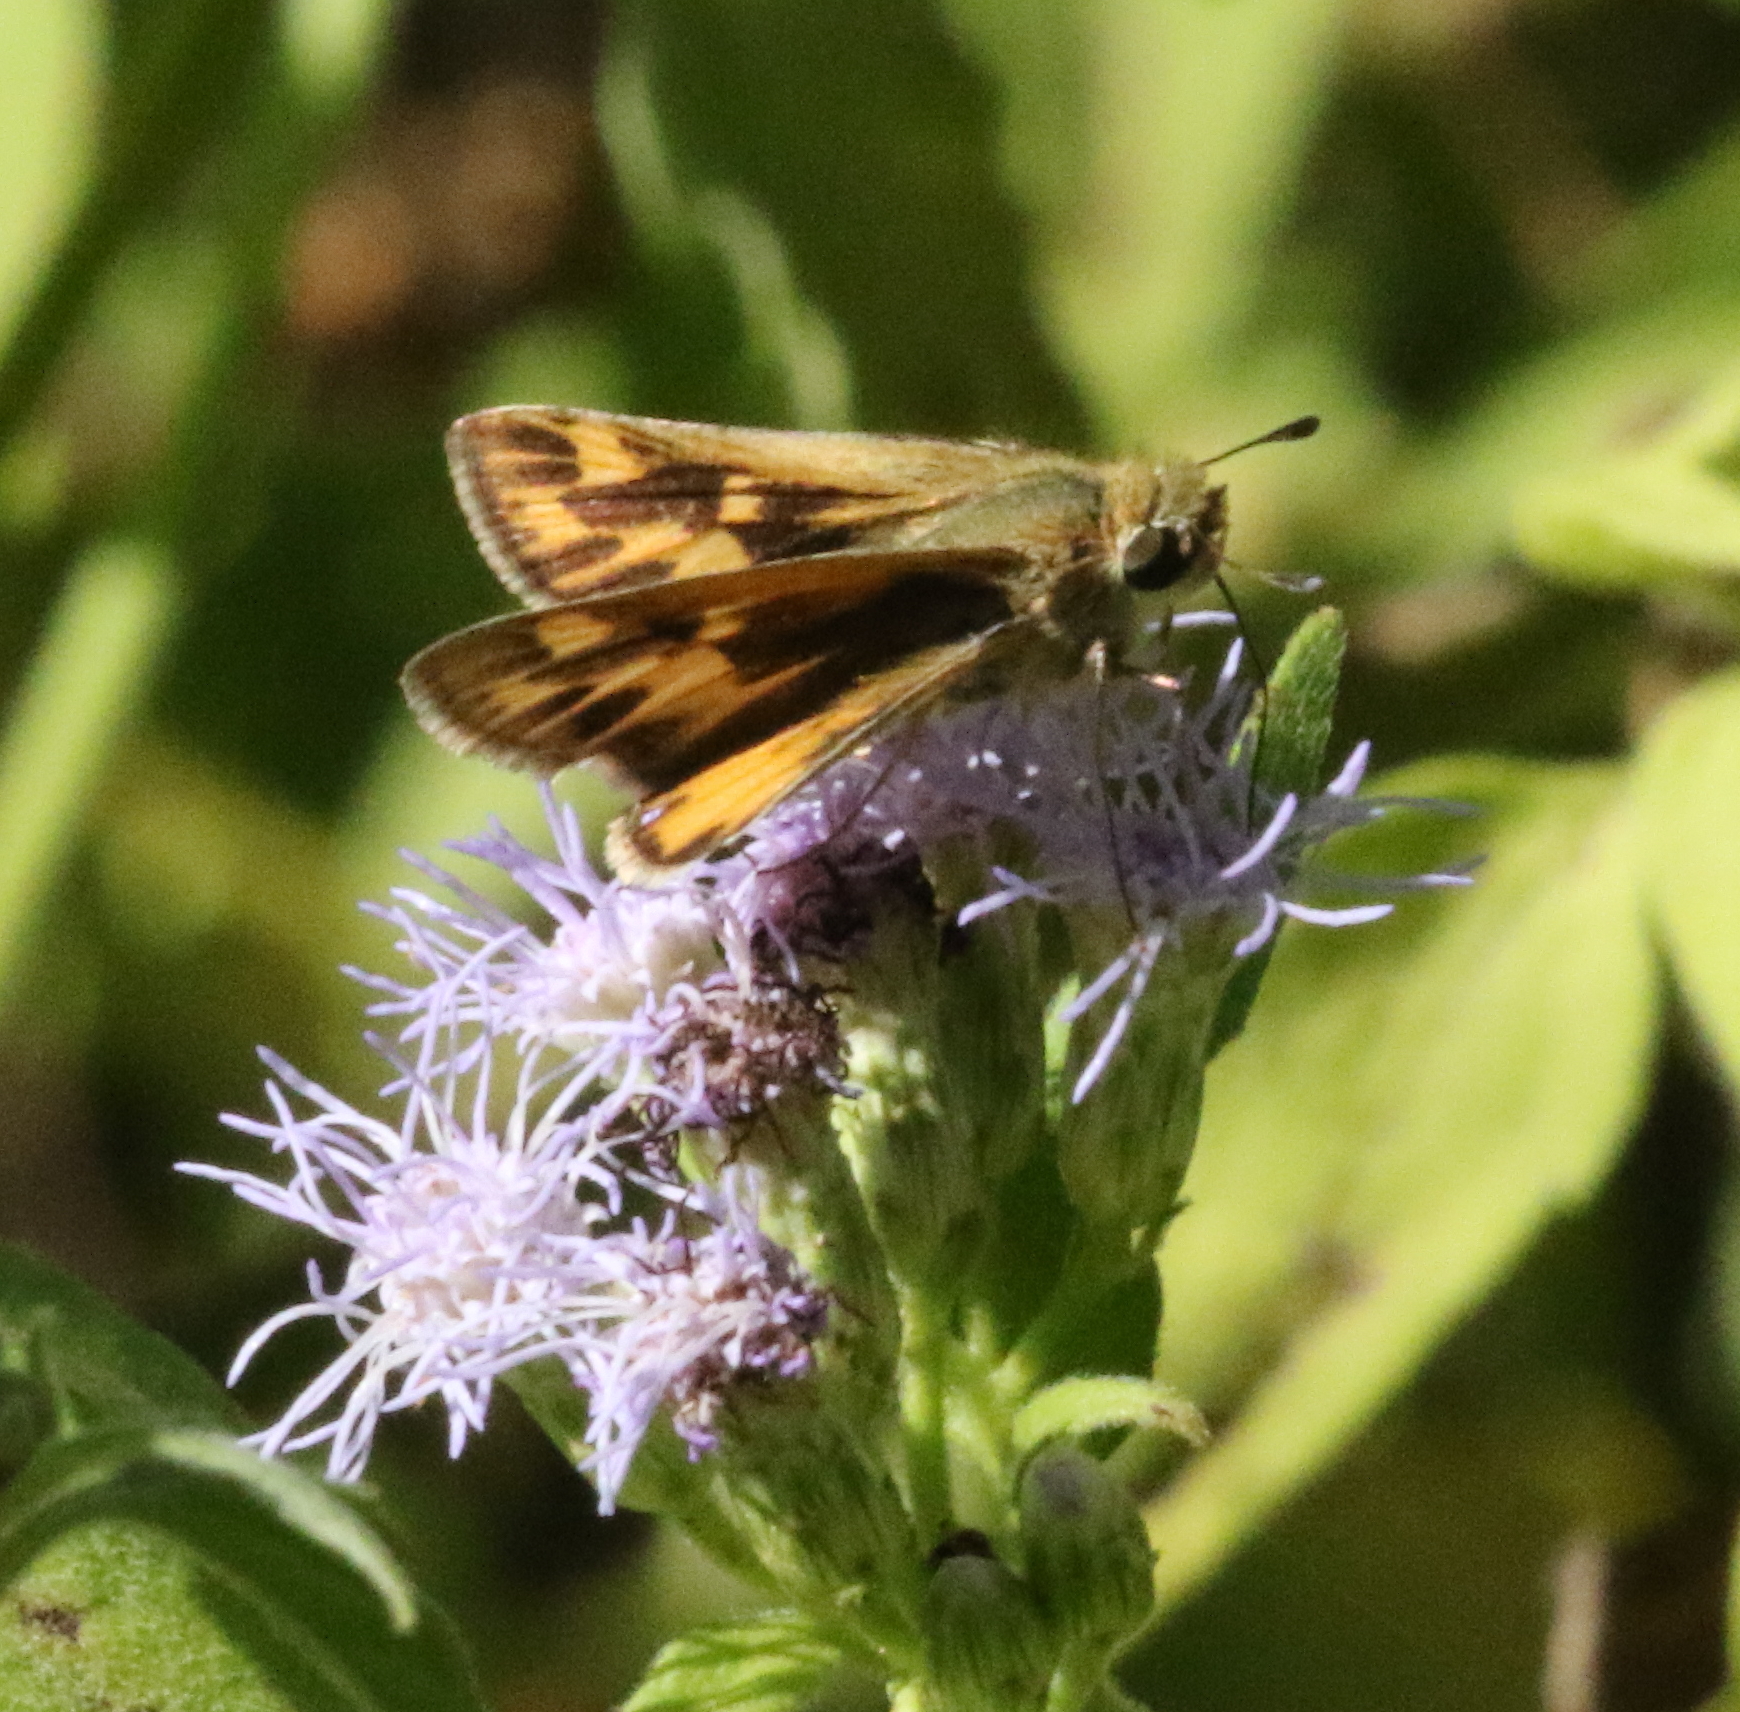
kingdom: Animalia
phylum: Arthropoda
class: Insecta
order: Lepidoptera
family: Hesperiidae
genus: Hylephila
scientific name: Hylephila phyleus
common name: Fiery skipper
